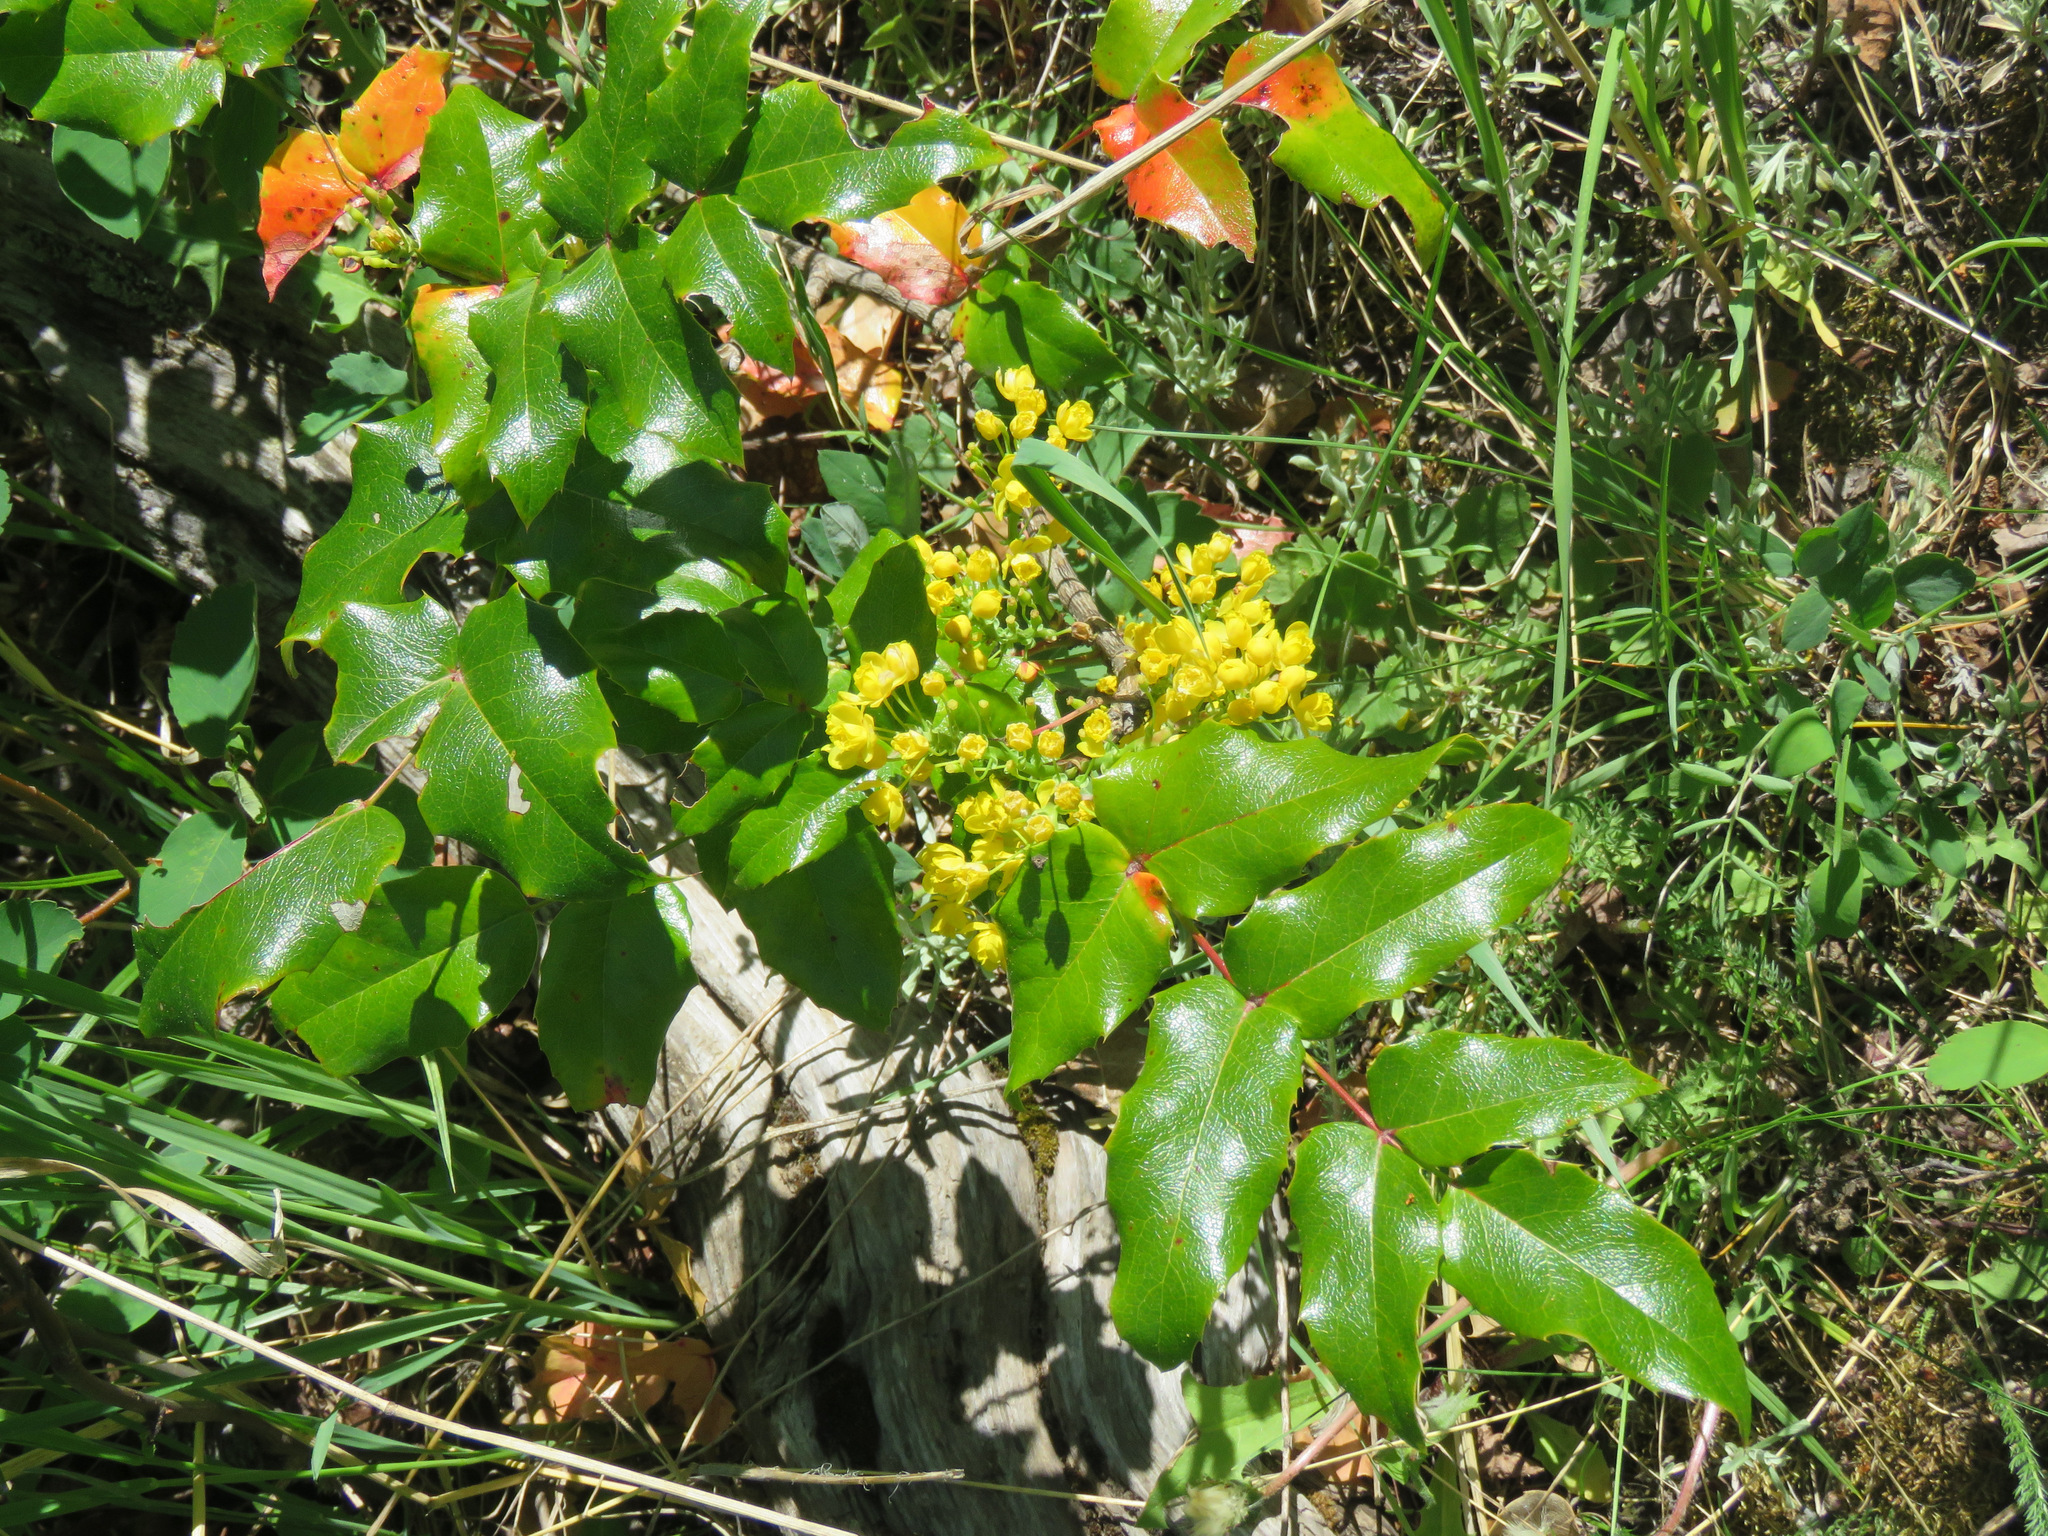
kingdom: Plantae
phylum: Tracheophyta
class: Magnoliopsida
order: Ranunculales
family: Berberidaceae
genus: Mahonia
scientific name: Mahonia aquifolium
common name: Oregon-grape
